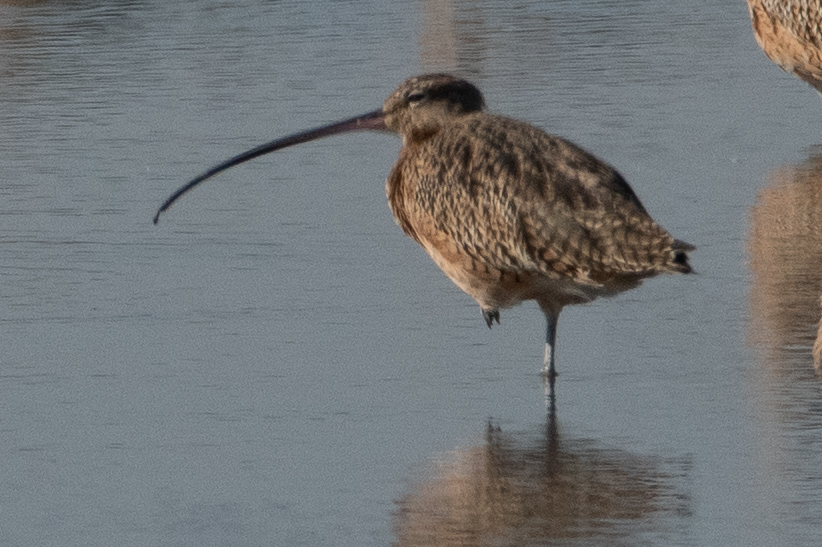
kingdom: Animalia
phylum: Chordata
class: Aves
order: Charadriiformes
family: Scolopacidae
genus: Numenius
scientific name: Numenius americanus
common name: Long-billed curlew
